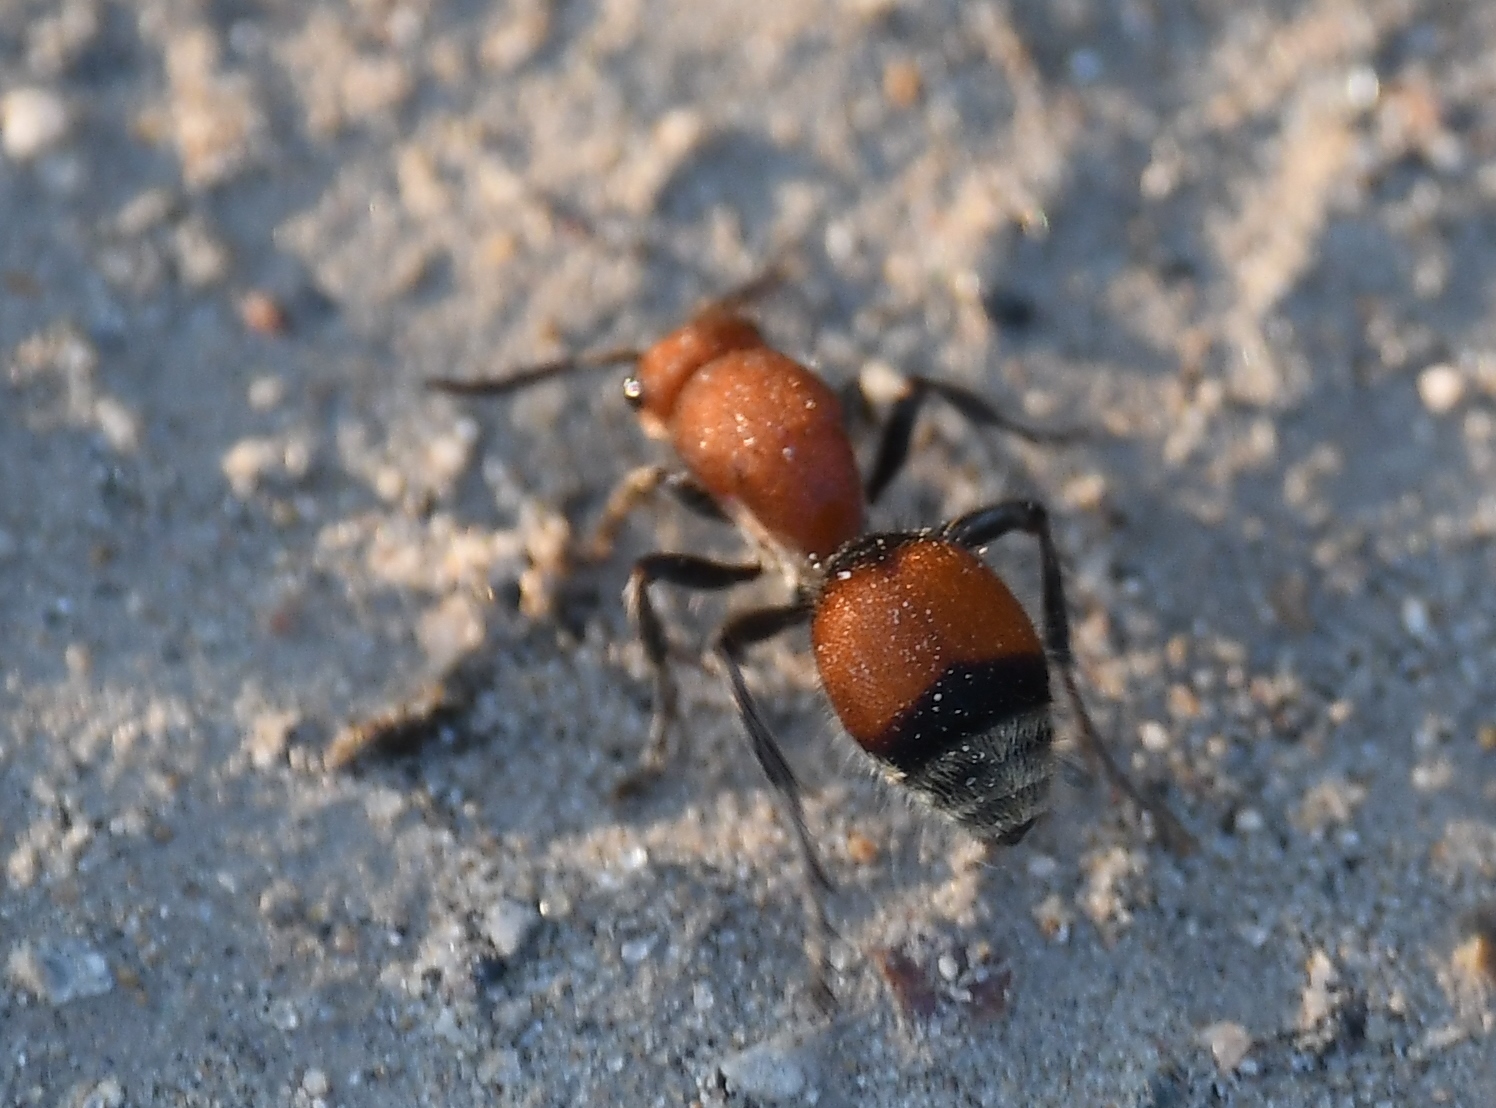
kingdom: Animalia
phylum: Arthropoda
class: Insecta
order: Hymenoptera
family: Mutillidae
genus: Dasymutilla
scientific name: Dasymutilla
